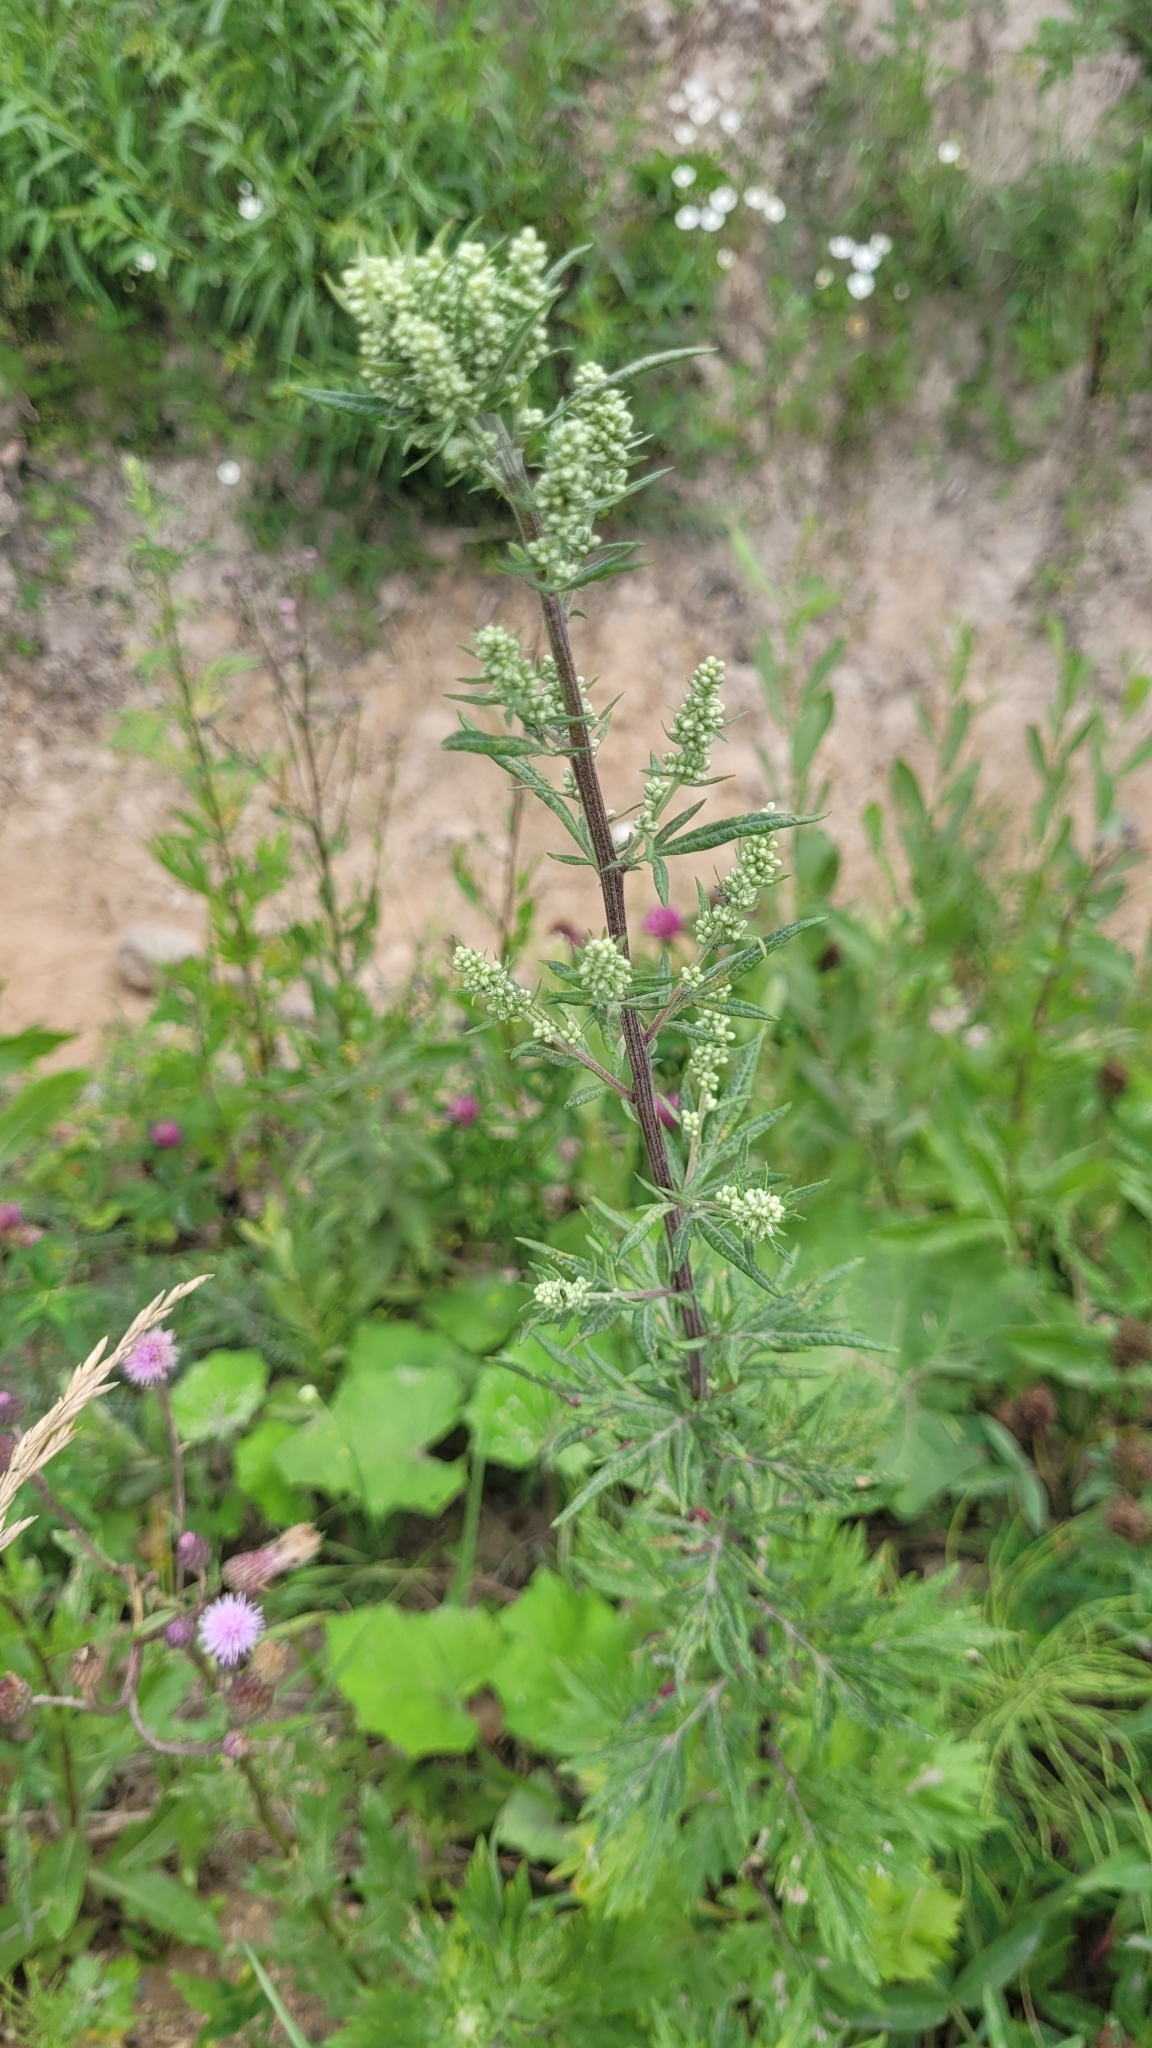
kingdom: Plantae
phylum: Tracheophyta
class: Magnoliopsida
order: Asterales
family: Asteraceae
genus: Artemisia
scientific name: Artemisia vulgaris
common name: Mugwort
